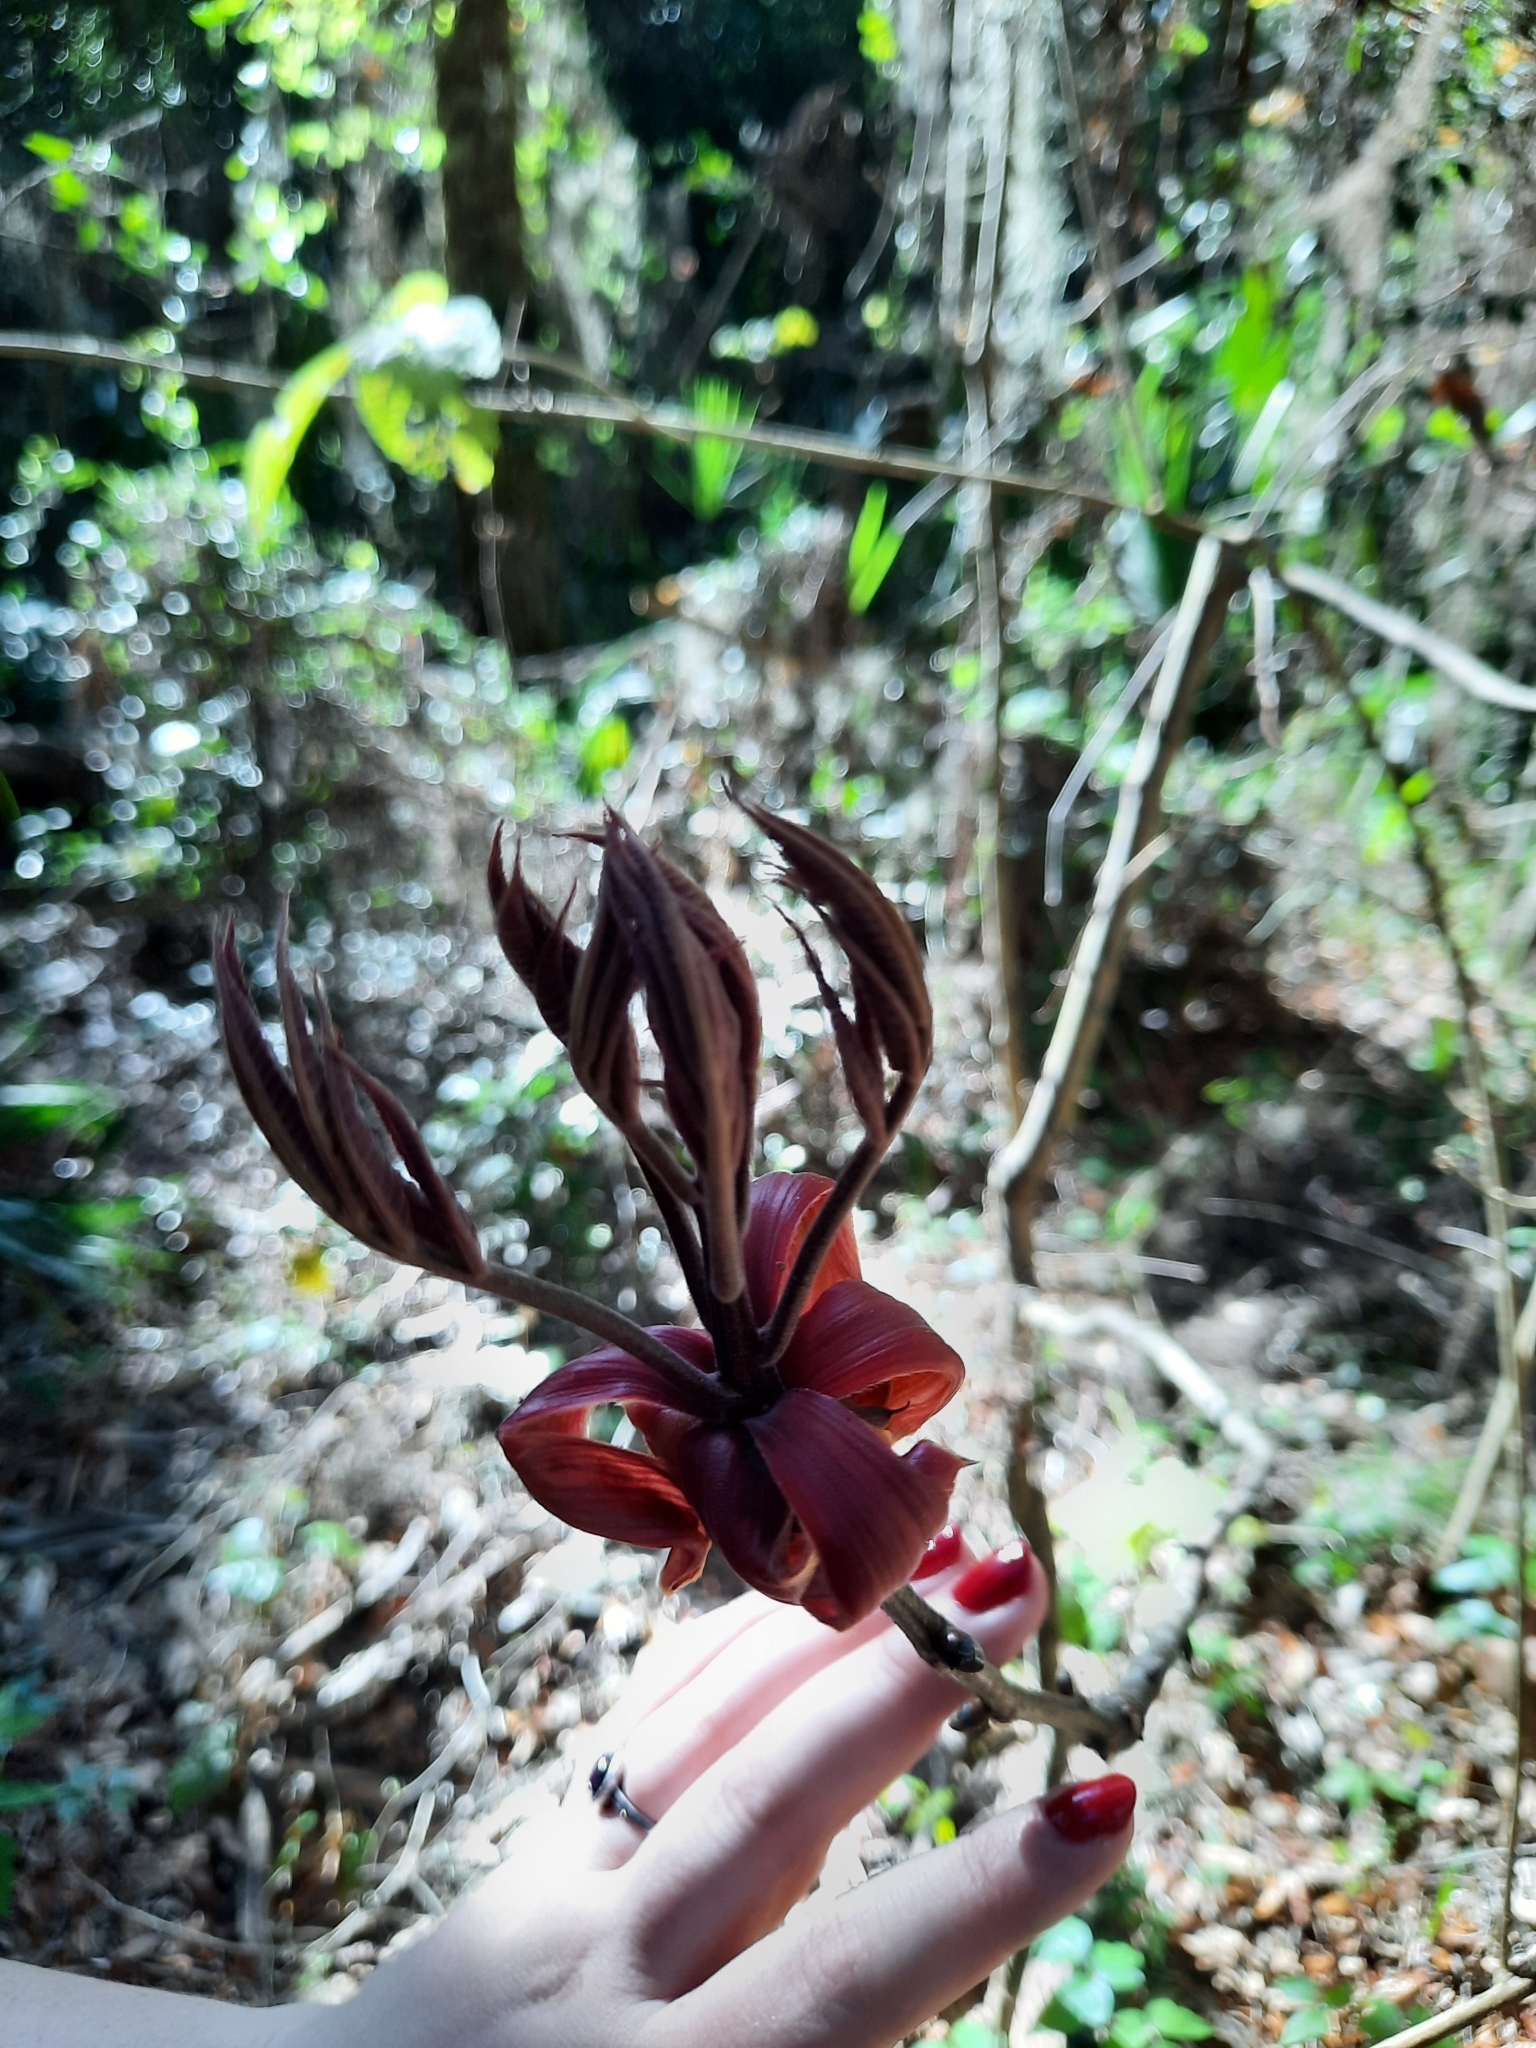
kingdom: Plantae
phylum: Tracheophyta
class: Magnoliopsida
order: Sapindales
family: Sapindaceae
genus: Aesculus
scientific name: Aesculus pavia
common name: Red buckeye
